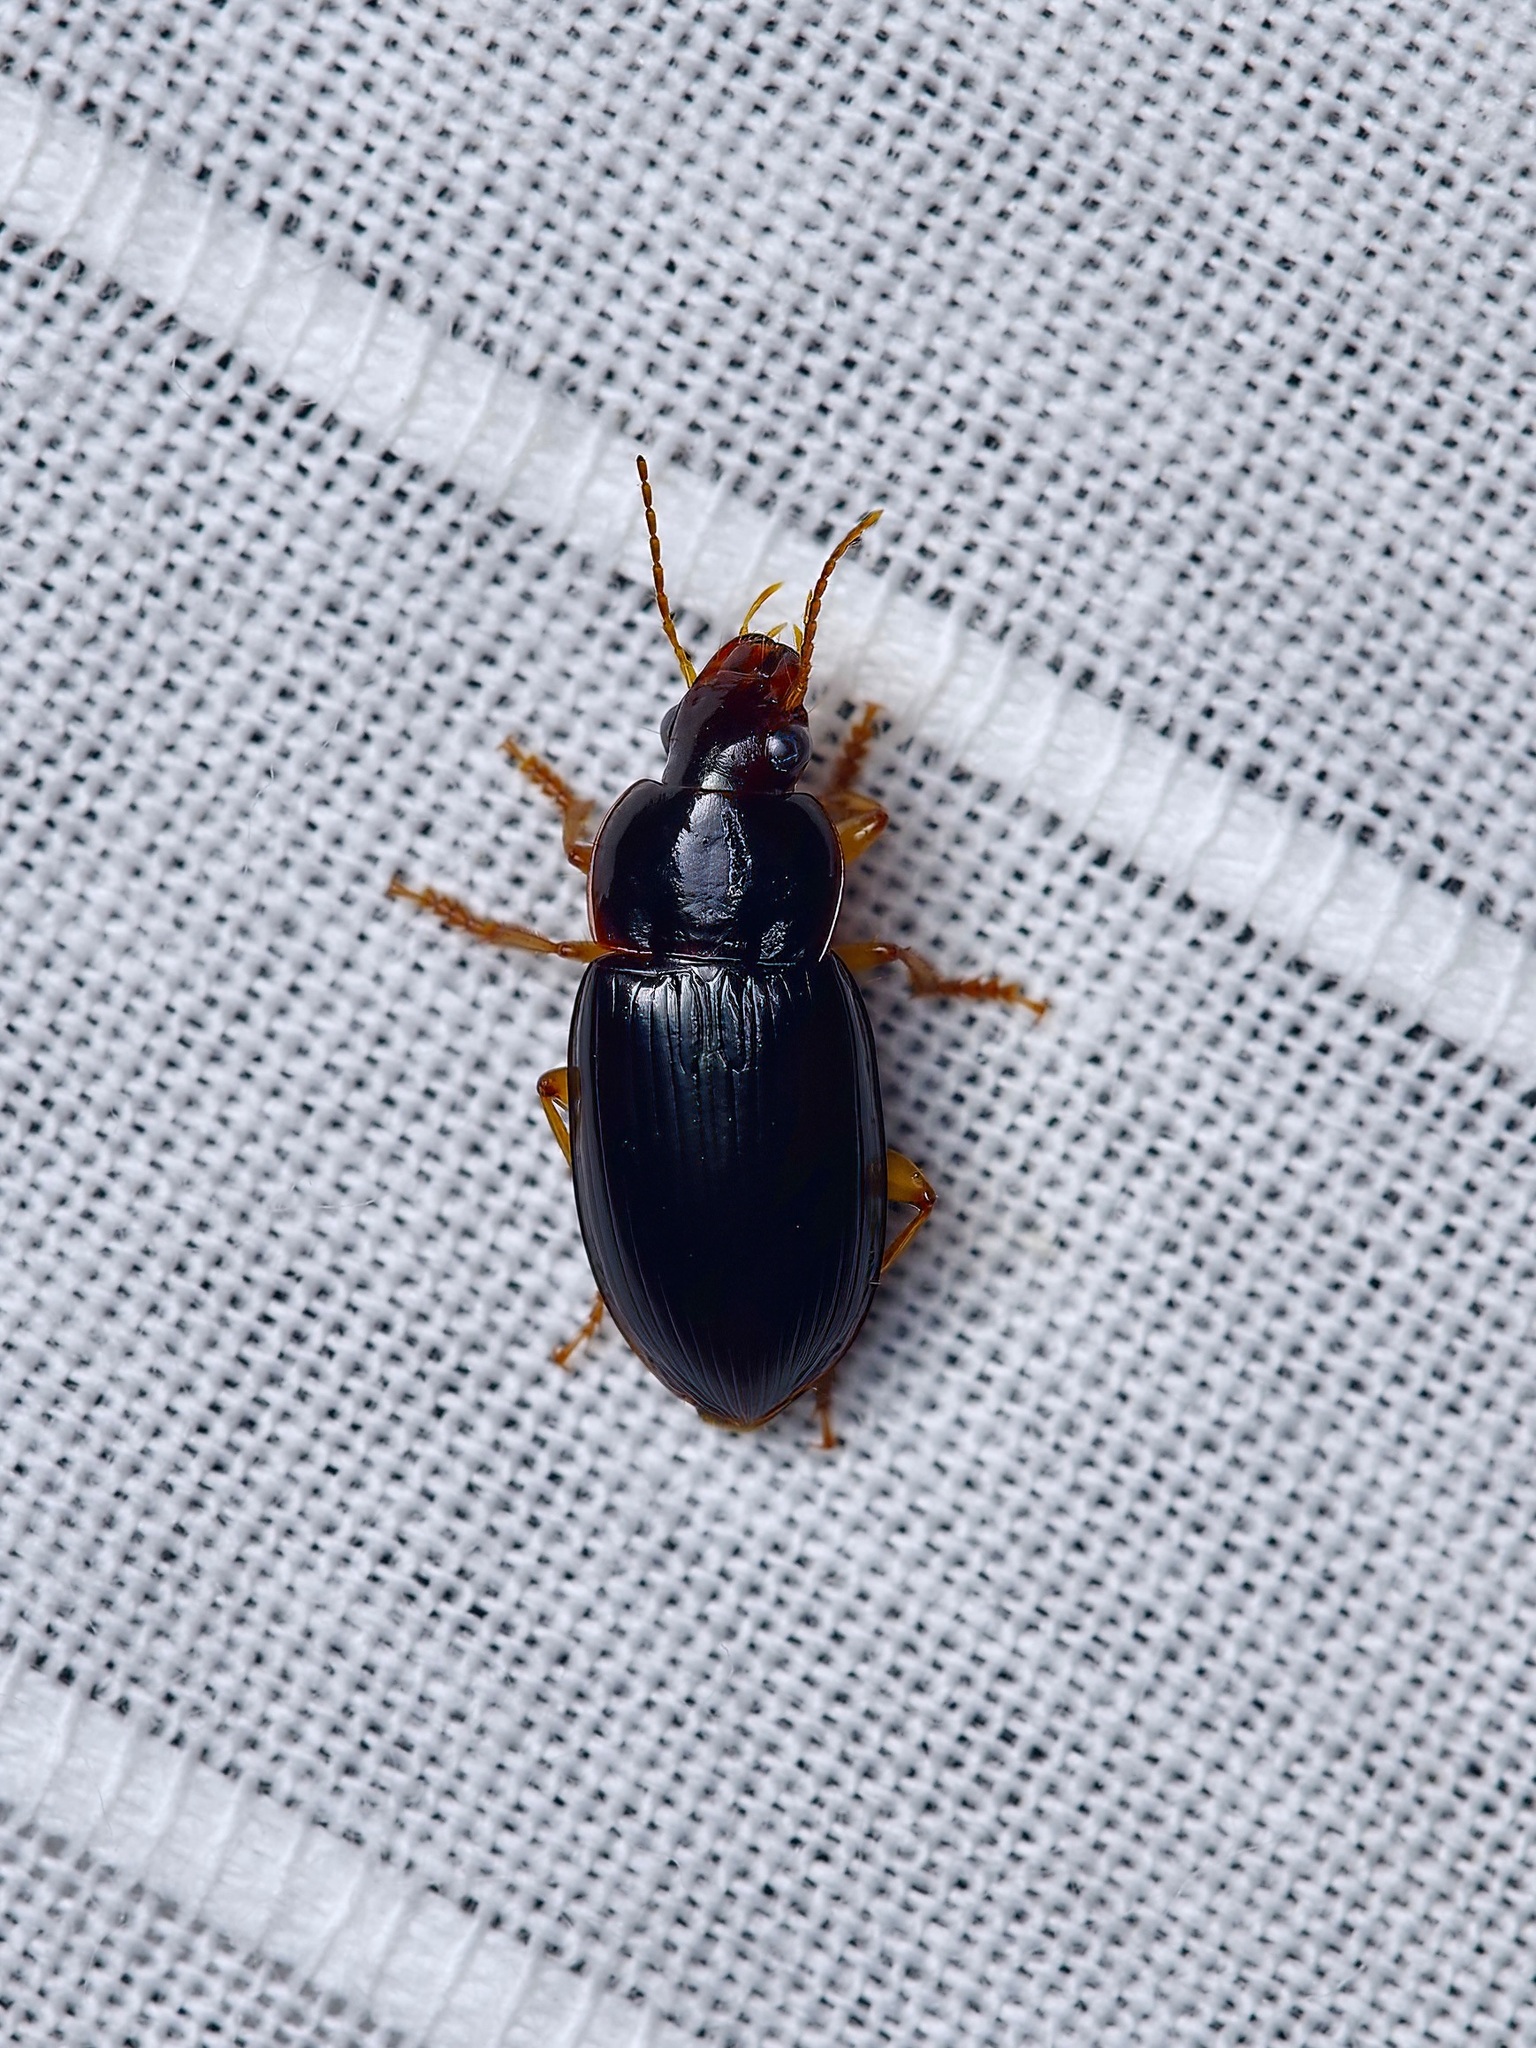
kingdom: Animalia
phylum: Arthropoda
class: Insecta
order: Coleoptera
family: Carabidae
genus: Notiobia
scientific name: Notiobia sayi
